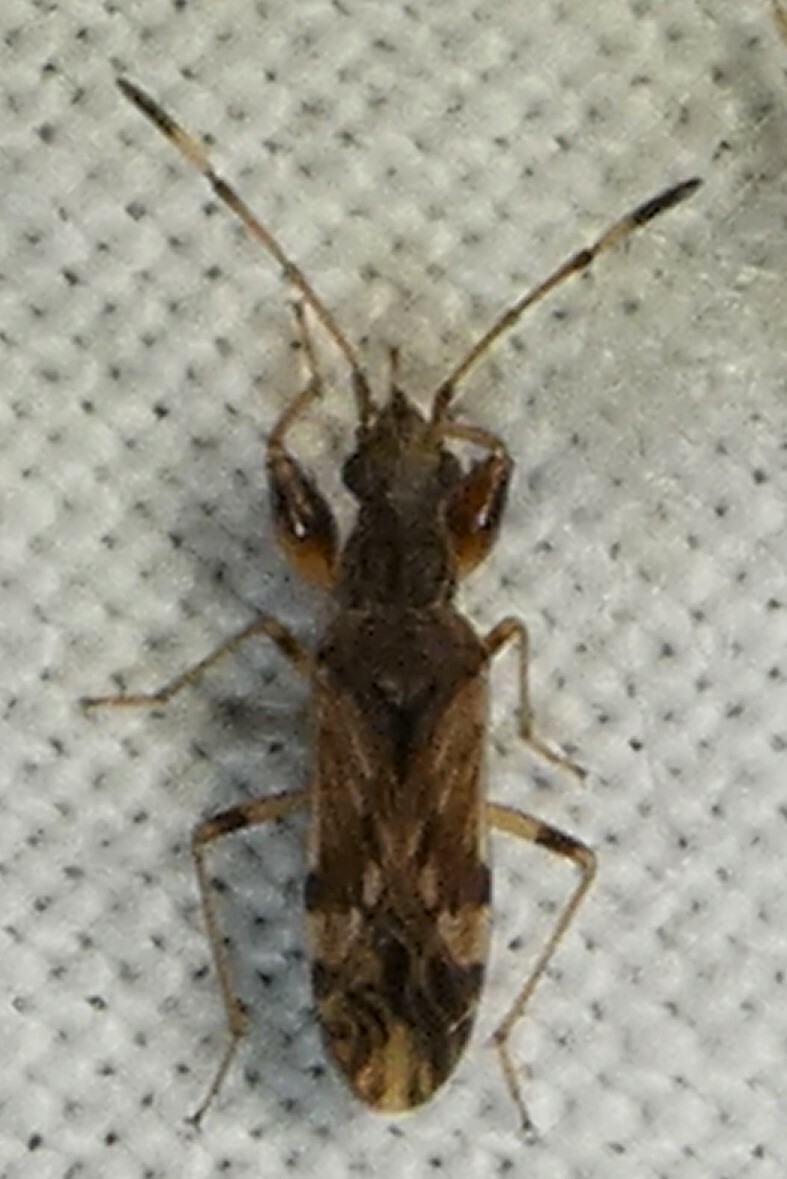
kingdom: Animalia
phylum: Arthropoda
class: Insecta
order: Hemiptera
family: Rhyparochromidae
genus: Neopamera
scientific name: Neopamera albocincta
